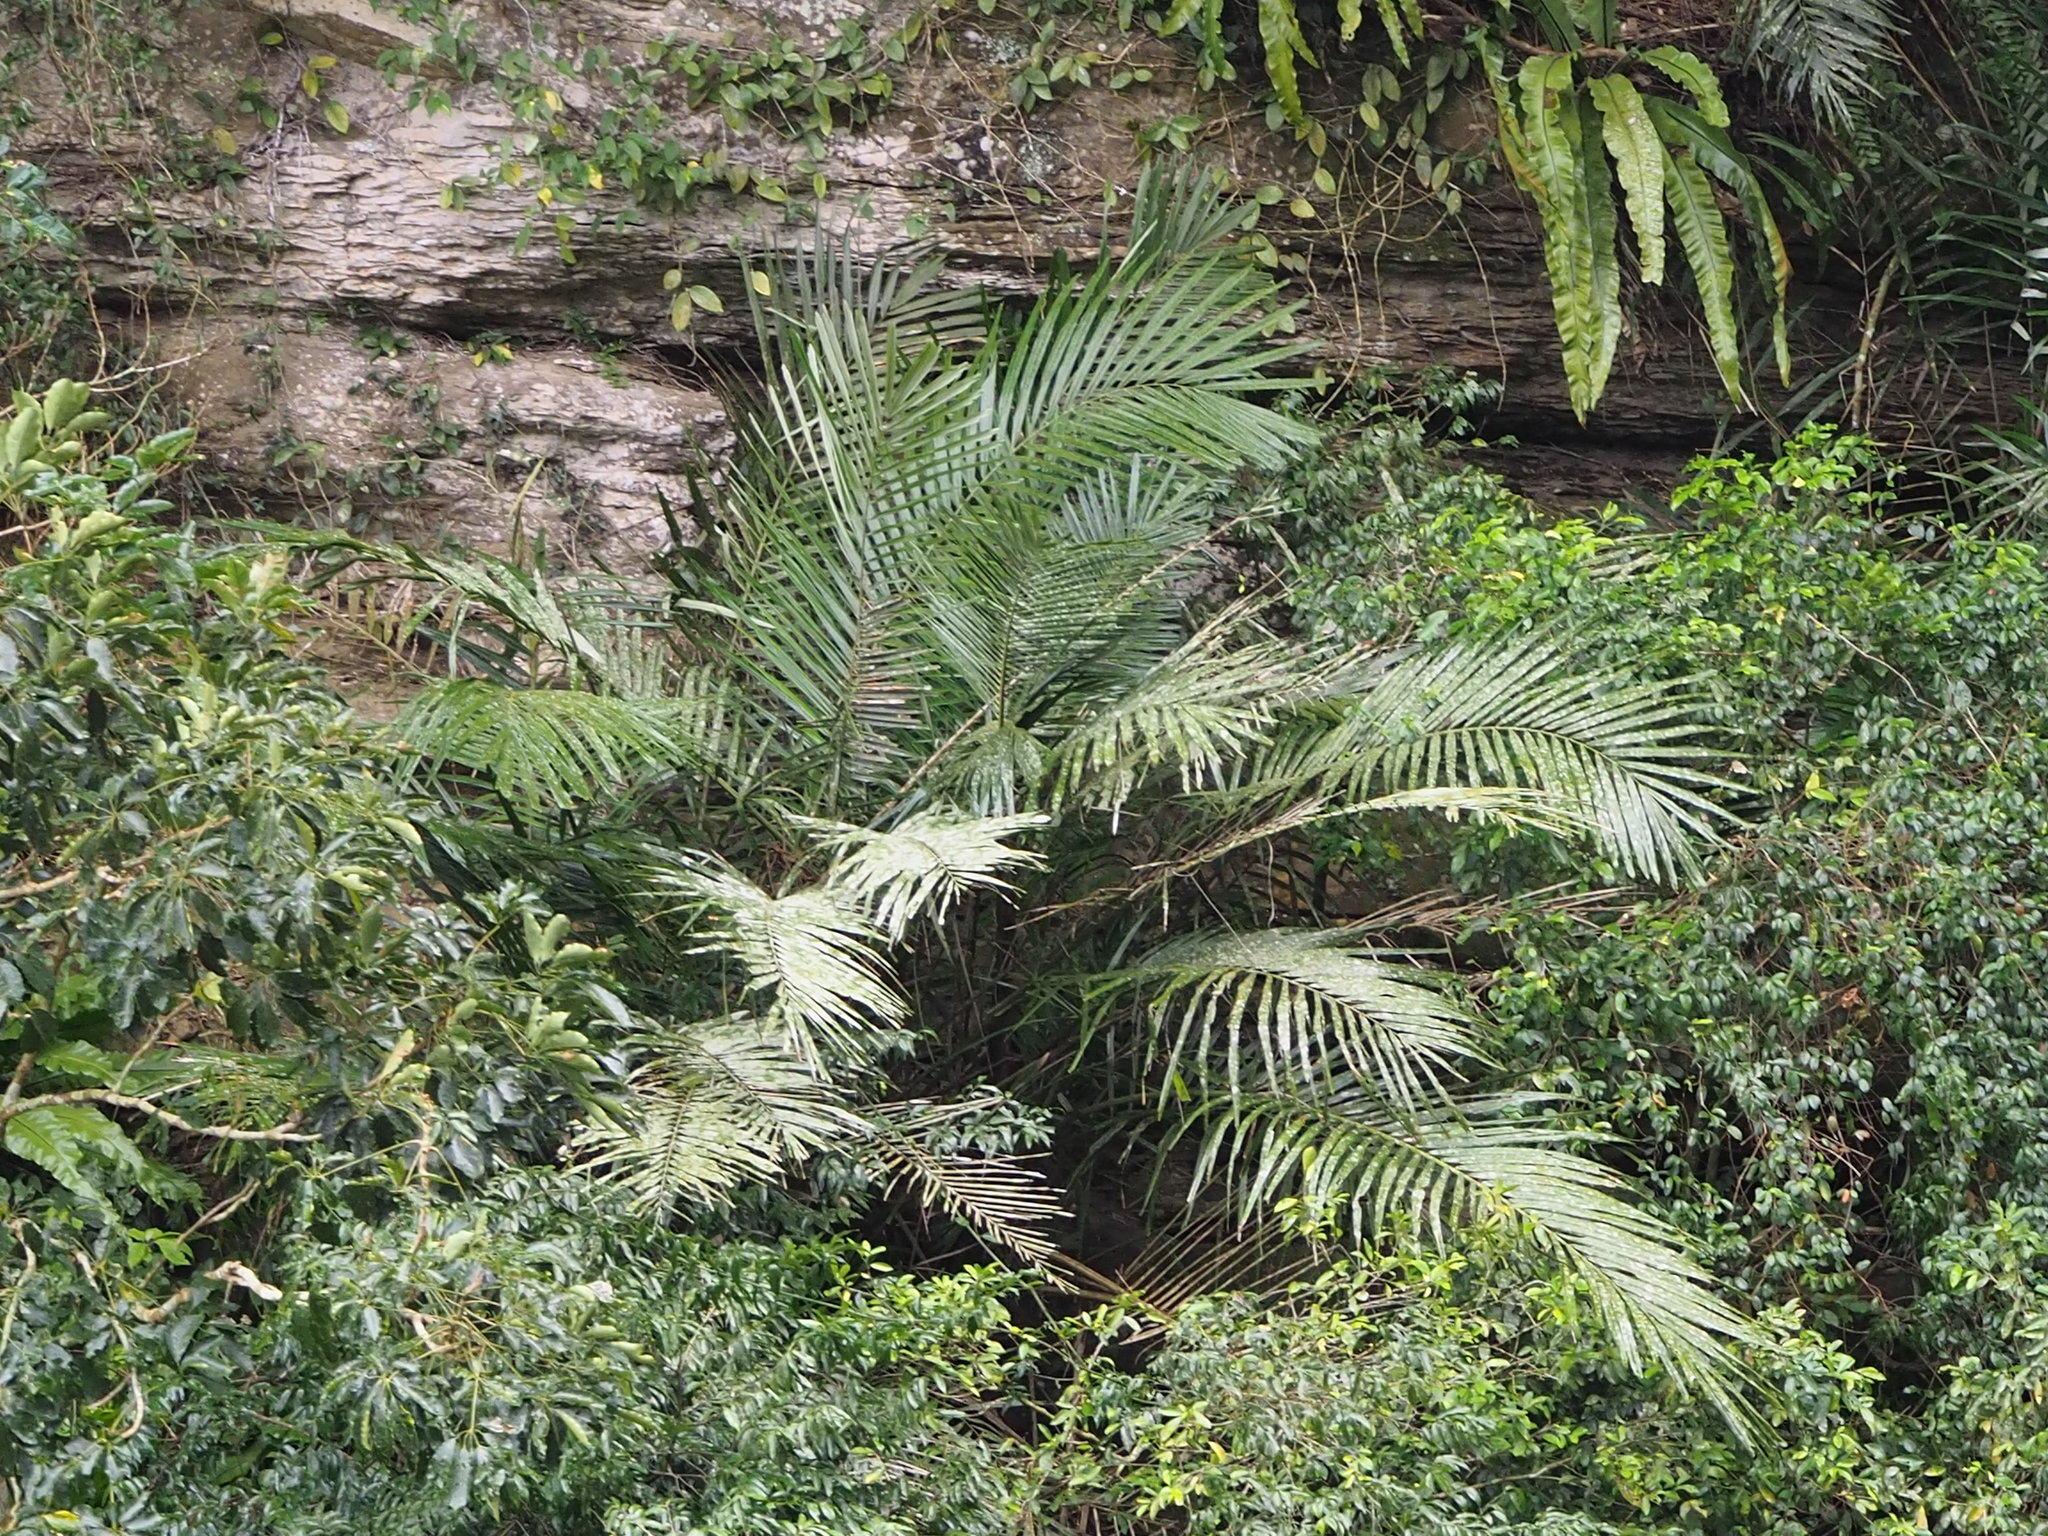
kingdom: Plantae
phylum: Tracheophyta
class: Liliopsida
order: Arecales
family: Arecaceae
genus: Arenga
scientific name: Arenga engleri
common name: Formosan sugar palm
